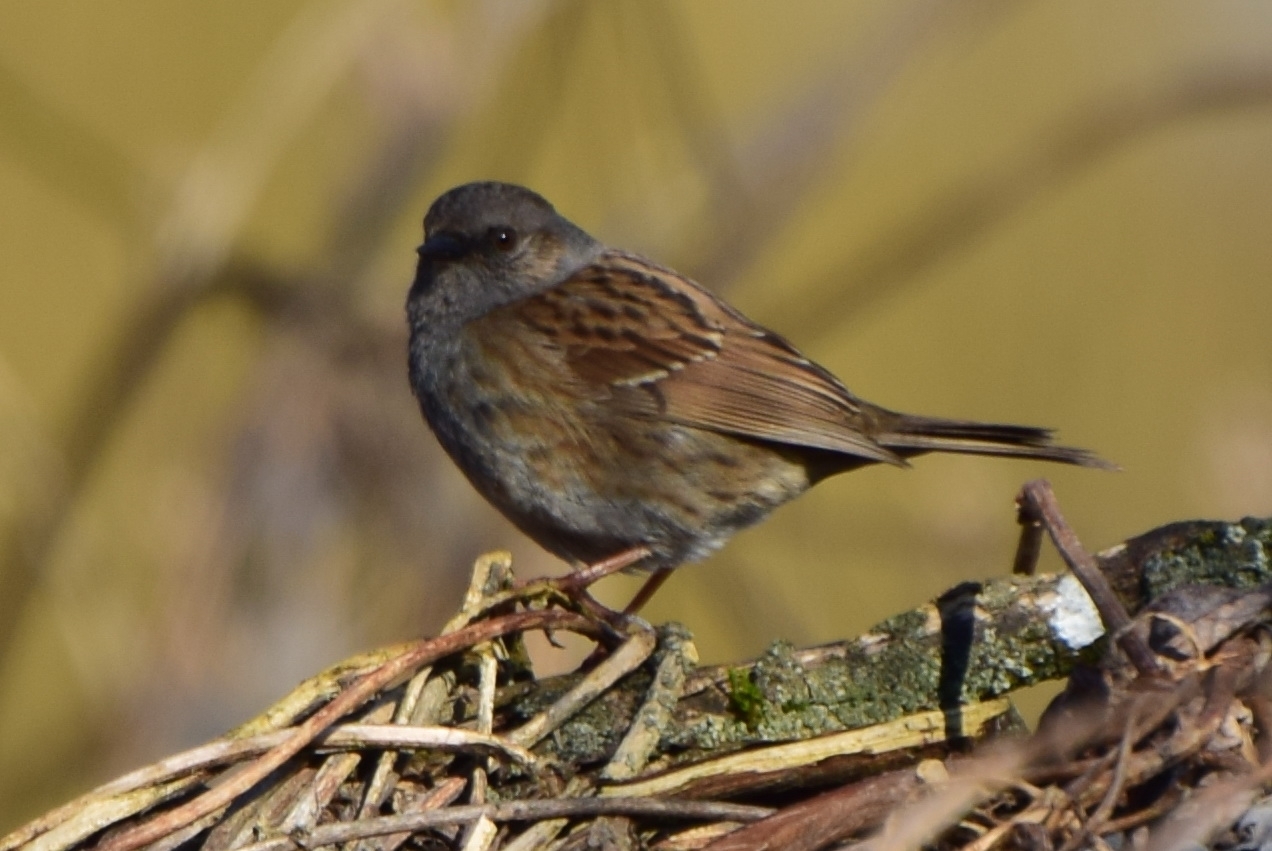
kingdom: Animalia
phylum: Chordata
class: Aves
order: Passeriformes
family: Prunellidae
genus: Prunella
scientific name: Prunella modularis
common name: Dunnock
